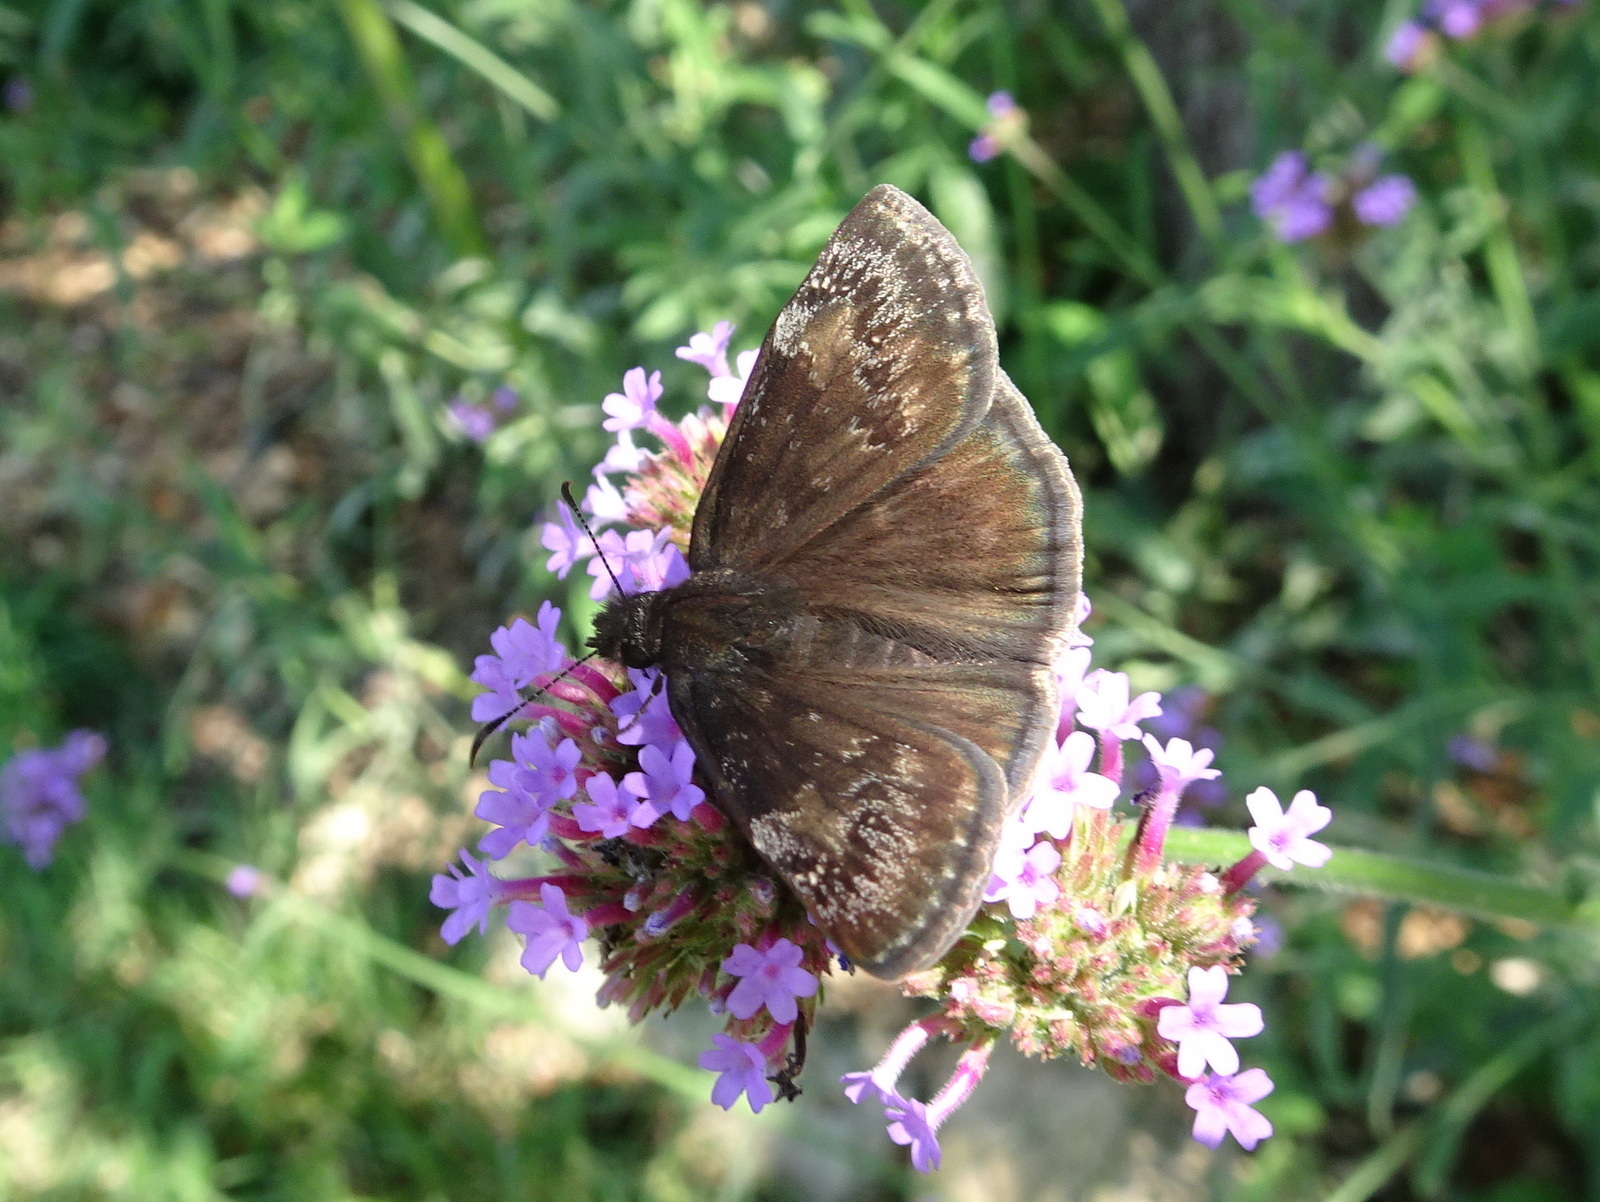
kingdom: Animalia
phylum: Arthropoda
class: Insecta
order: Lepidoptera
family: Hesperiidae
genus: Erynnis
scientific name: Erynnis baptisiae
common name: Wild indigo duskywing
